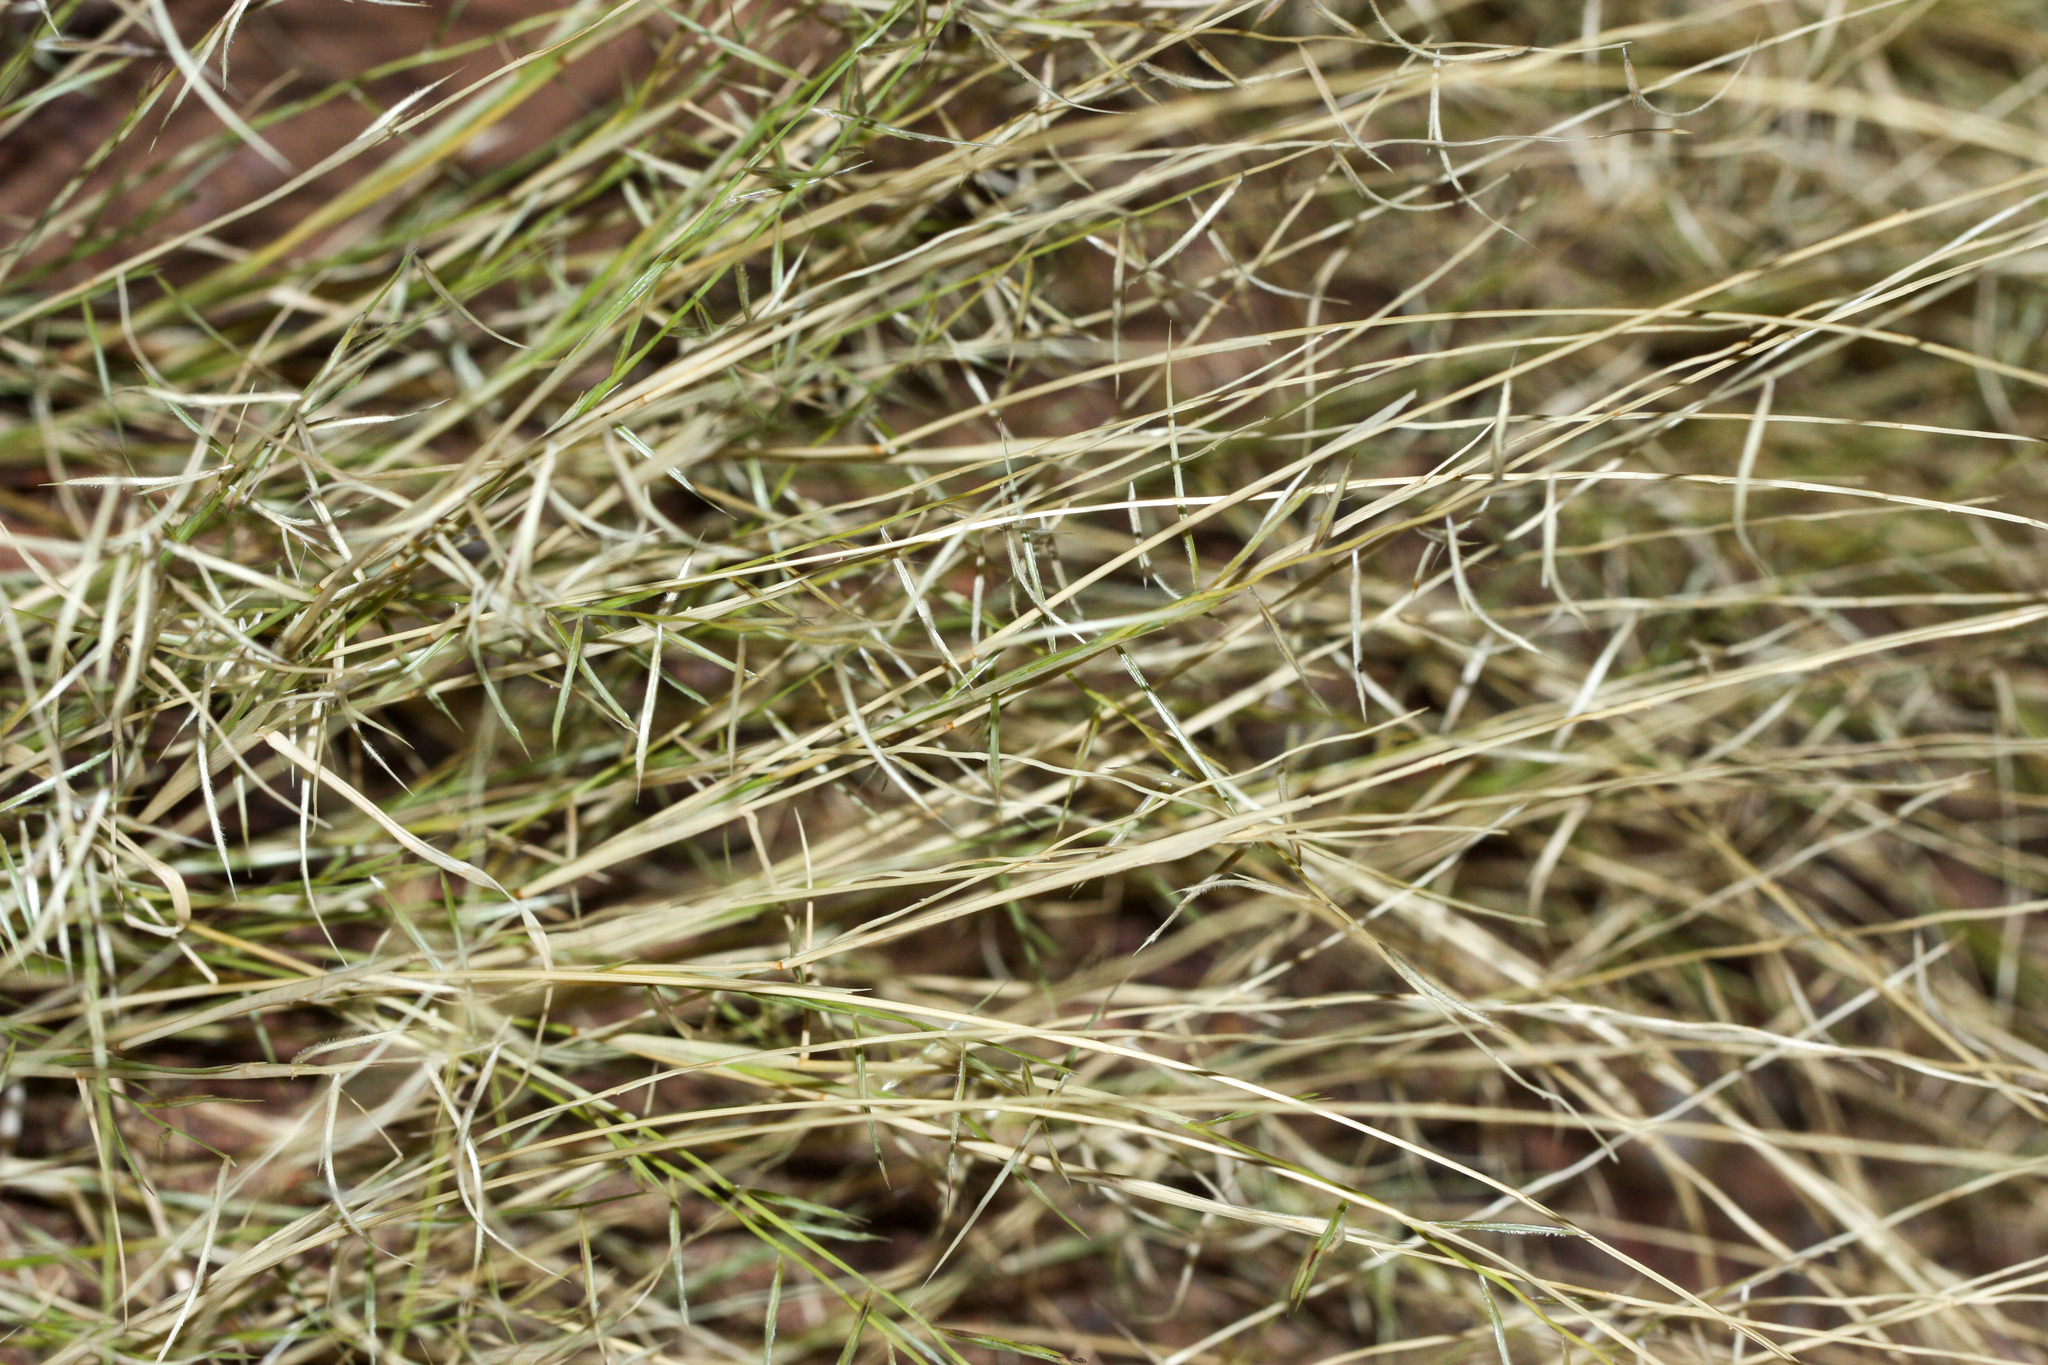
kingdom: Plantae
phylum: Tracheophyta
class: Liliopsida
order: Poales
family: Poaceae
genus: Bouteloua
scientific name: Bouteloua aristidoides
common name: Needle grama
